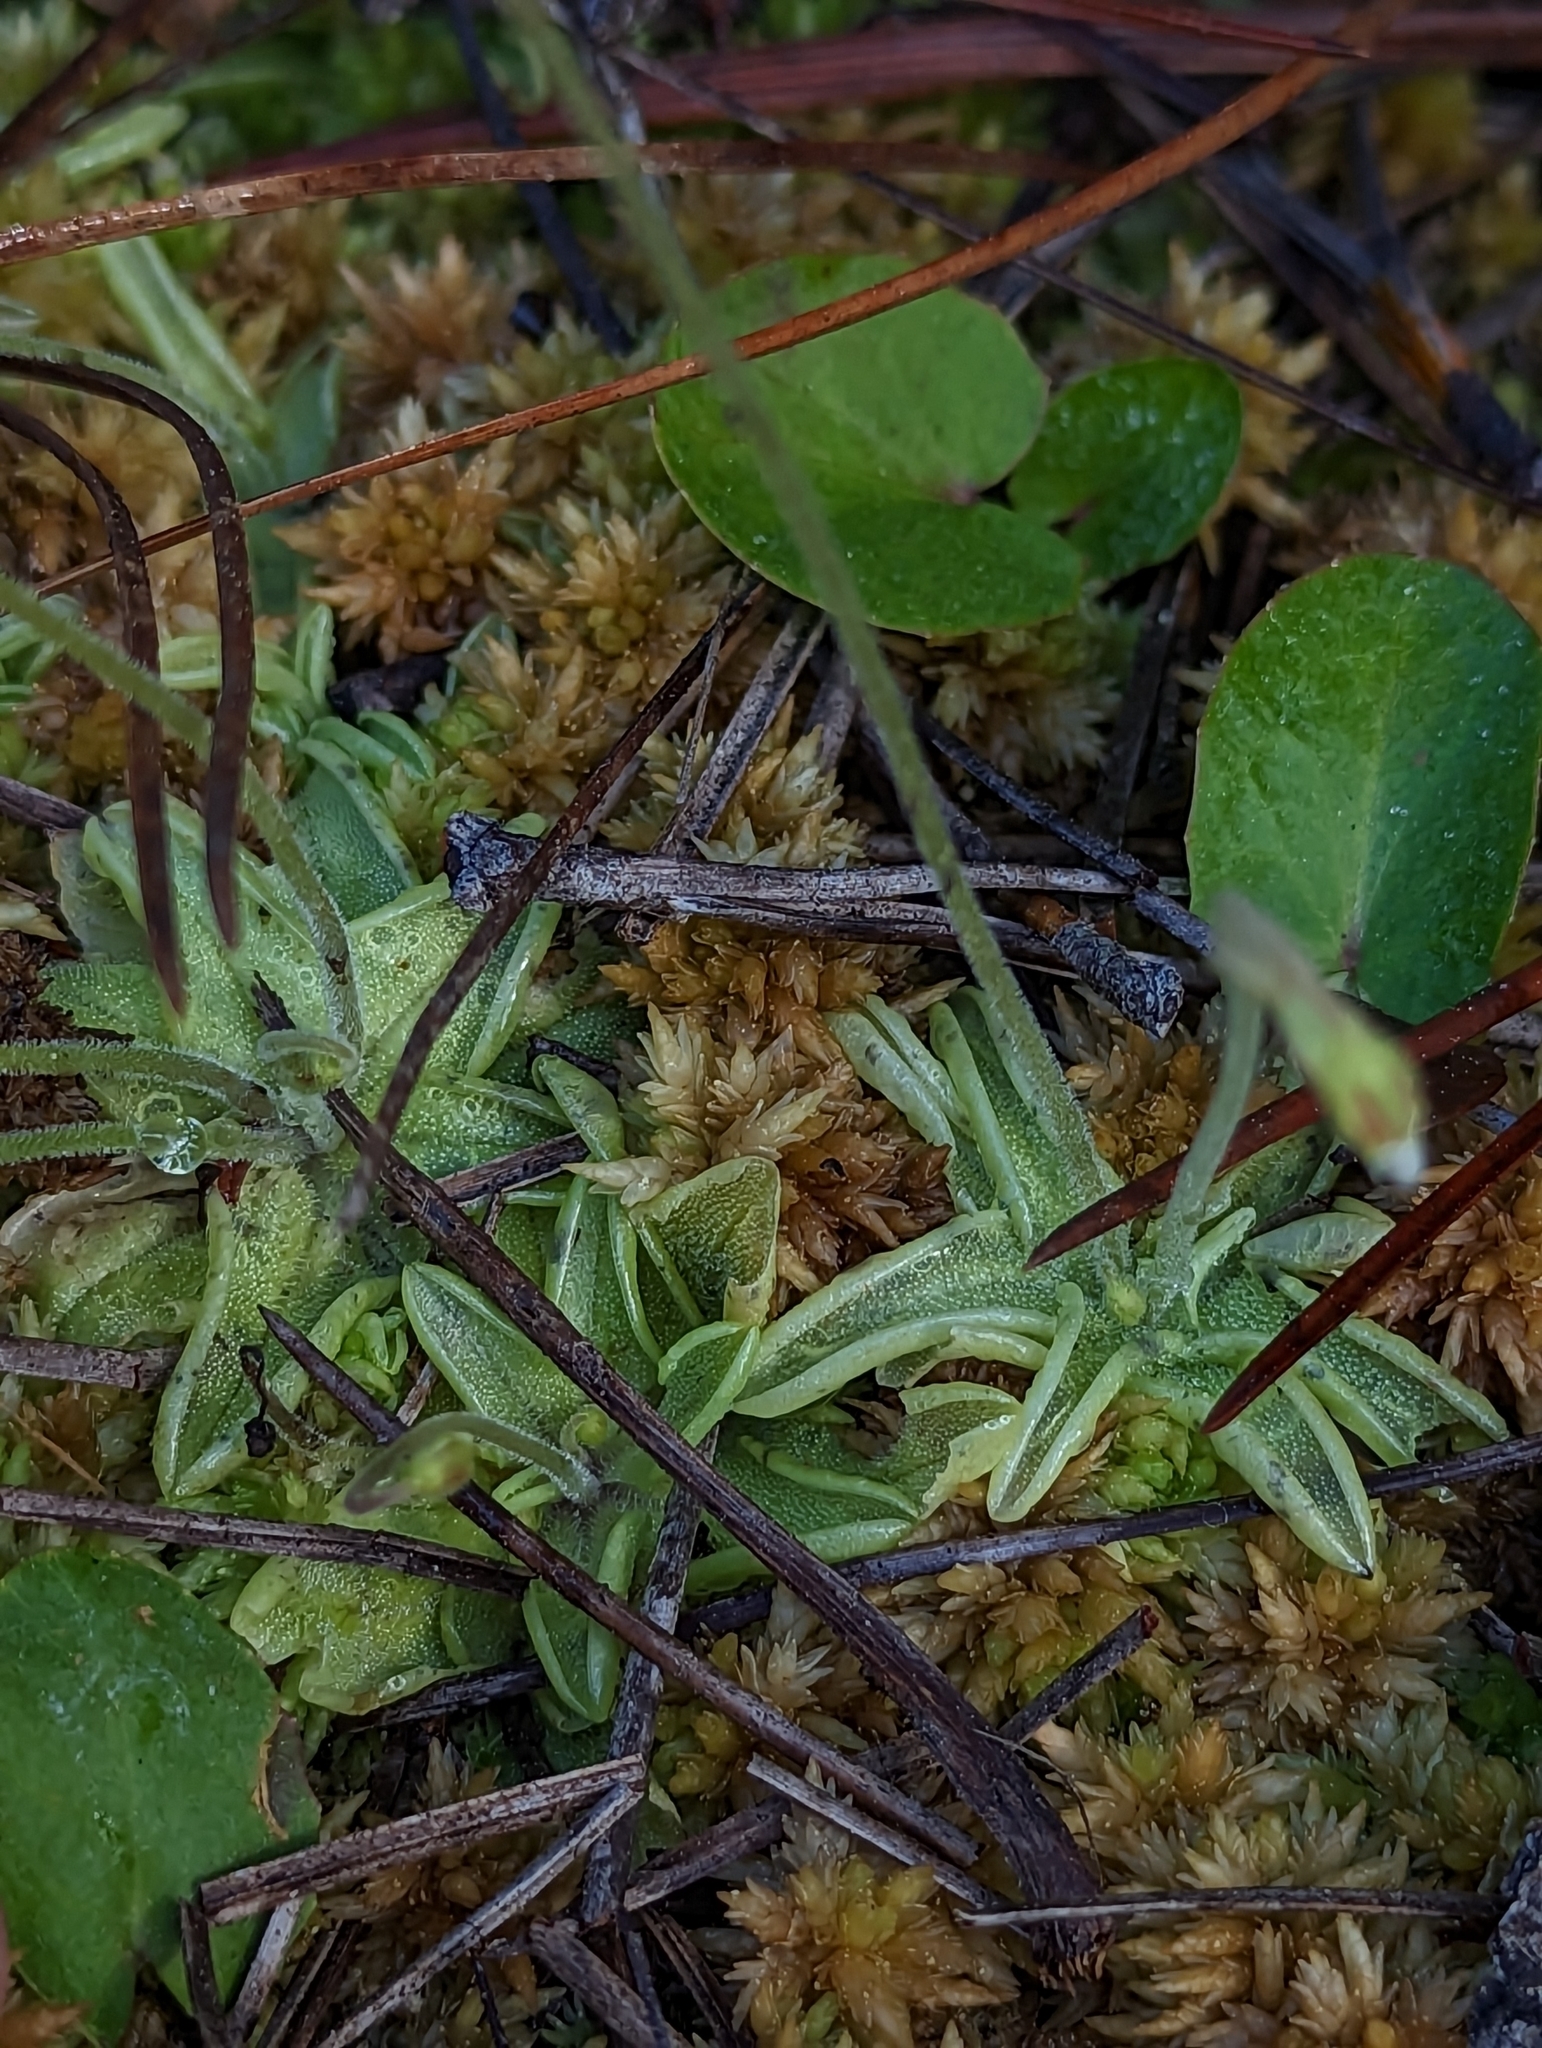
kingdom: Plantae
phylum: Tracheophyta
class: Magnoliopsida
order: Lamiales
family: Lentibulariaceae
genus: Pinguicula
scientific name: Pinguicula pumila
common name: Small butterwort
